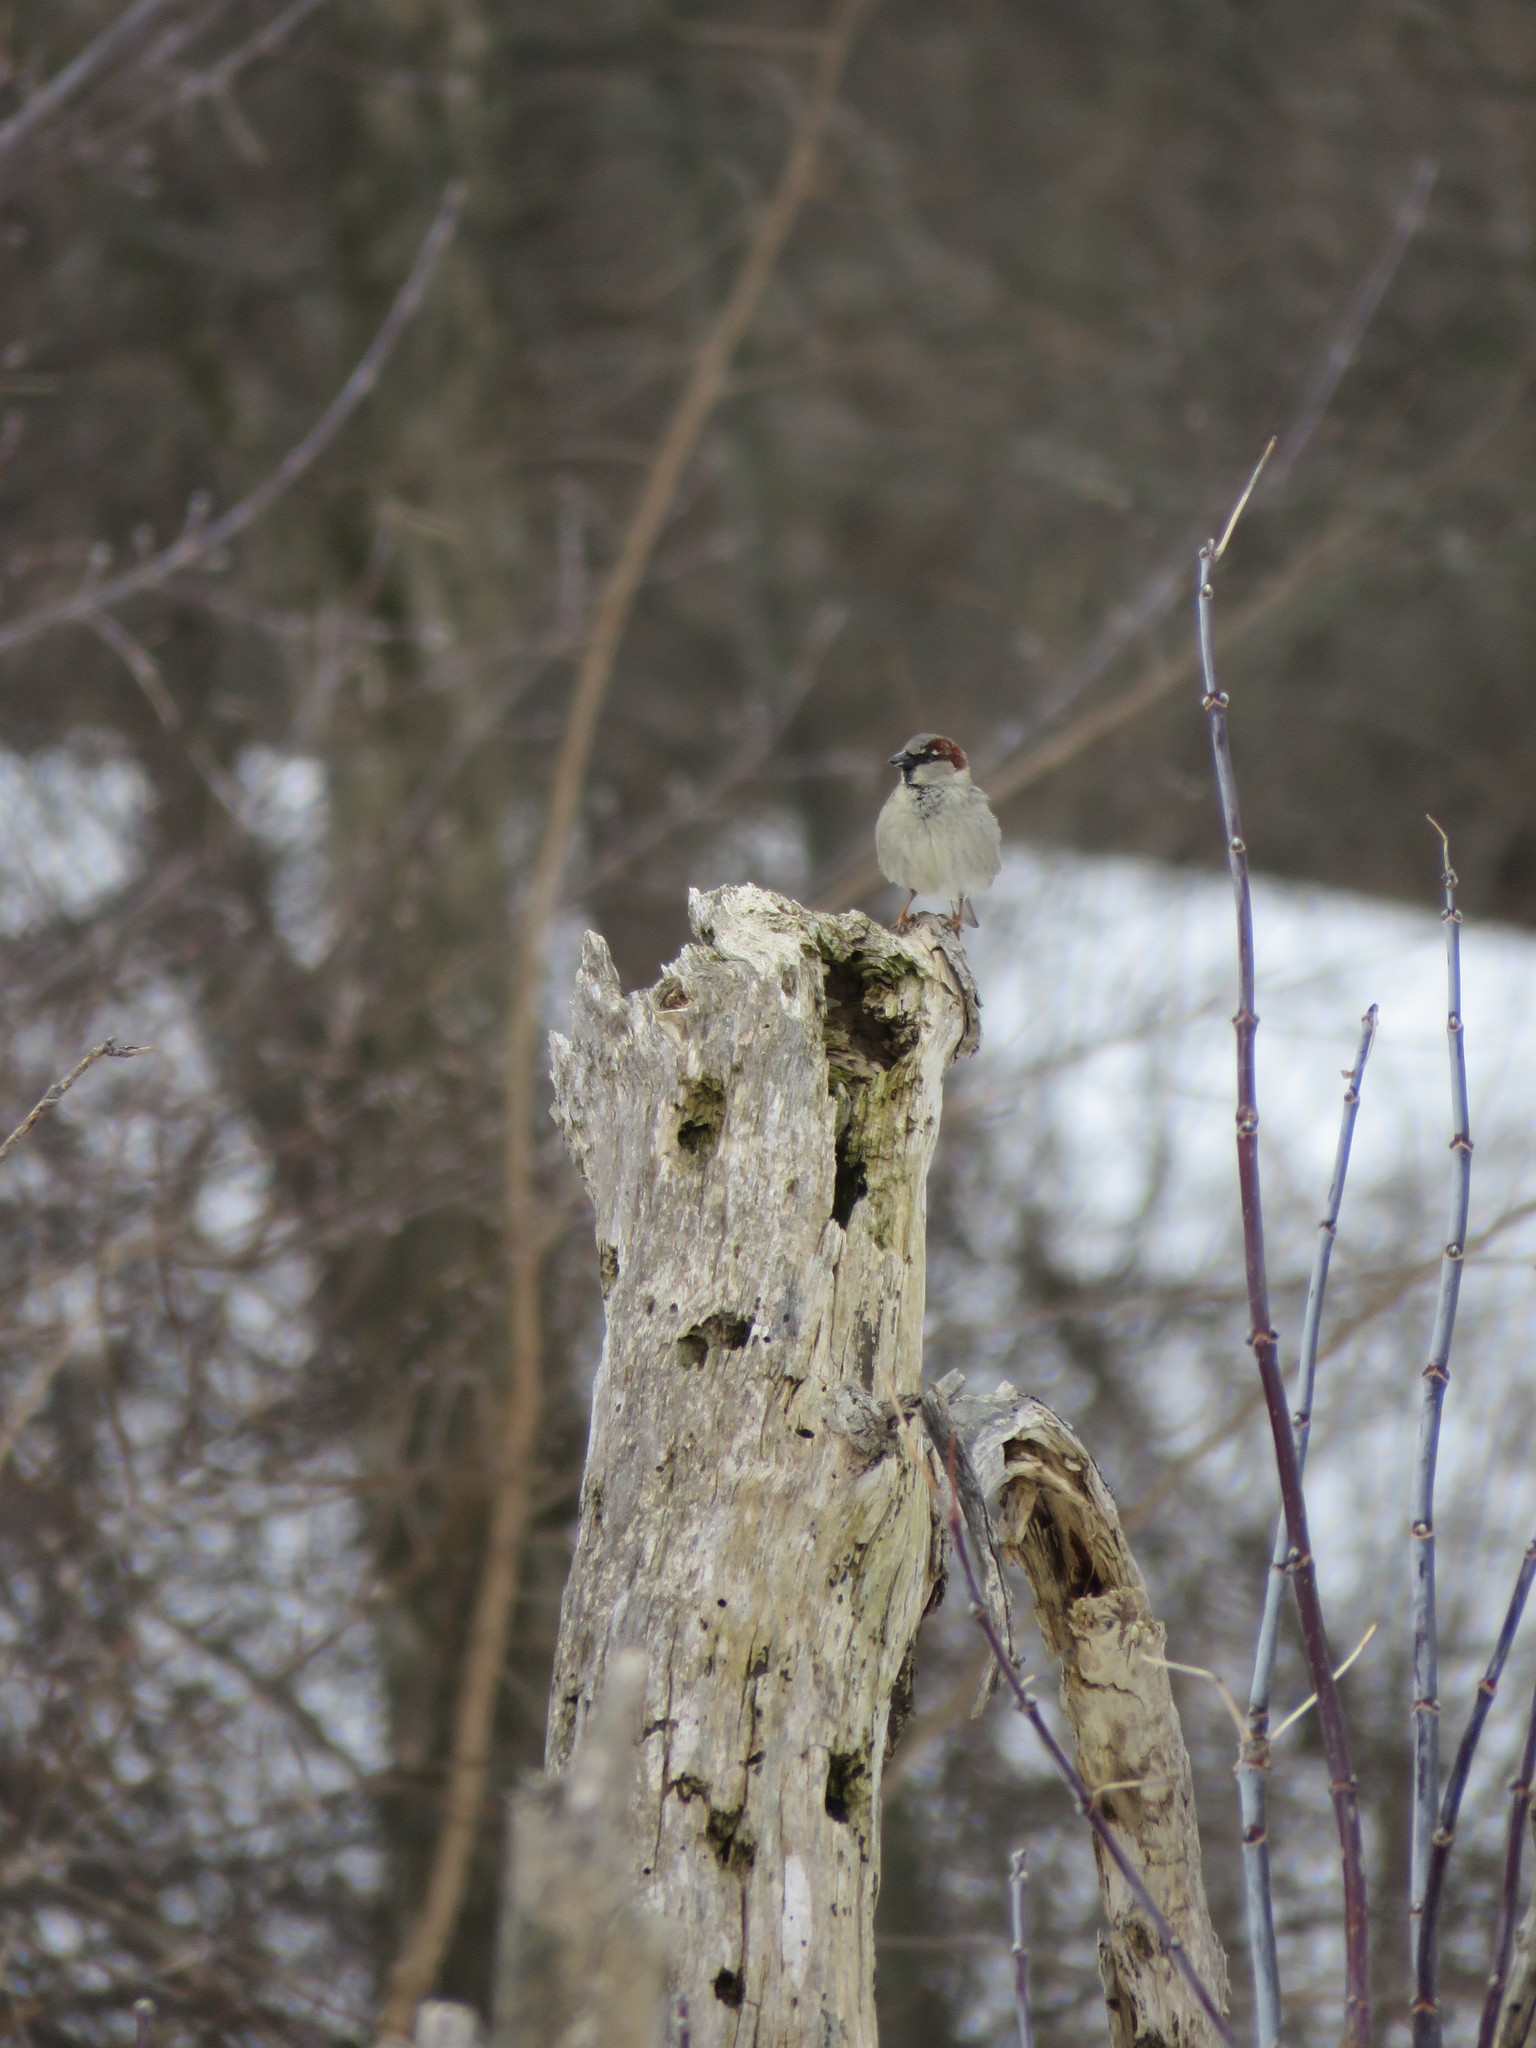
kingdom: Animalia
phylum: Chordata
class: Aves
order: Passeriformes
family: Passeridae
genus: Passer
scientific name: Passer domesticus
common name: House sparrow
